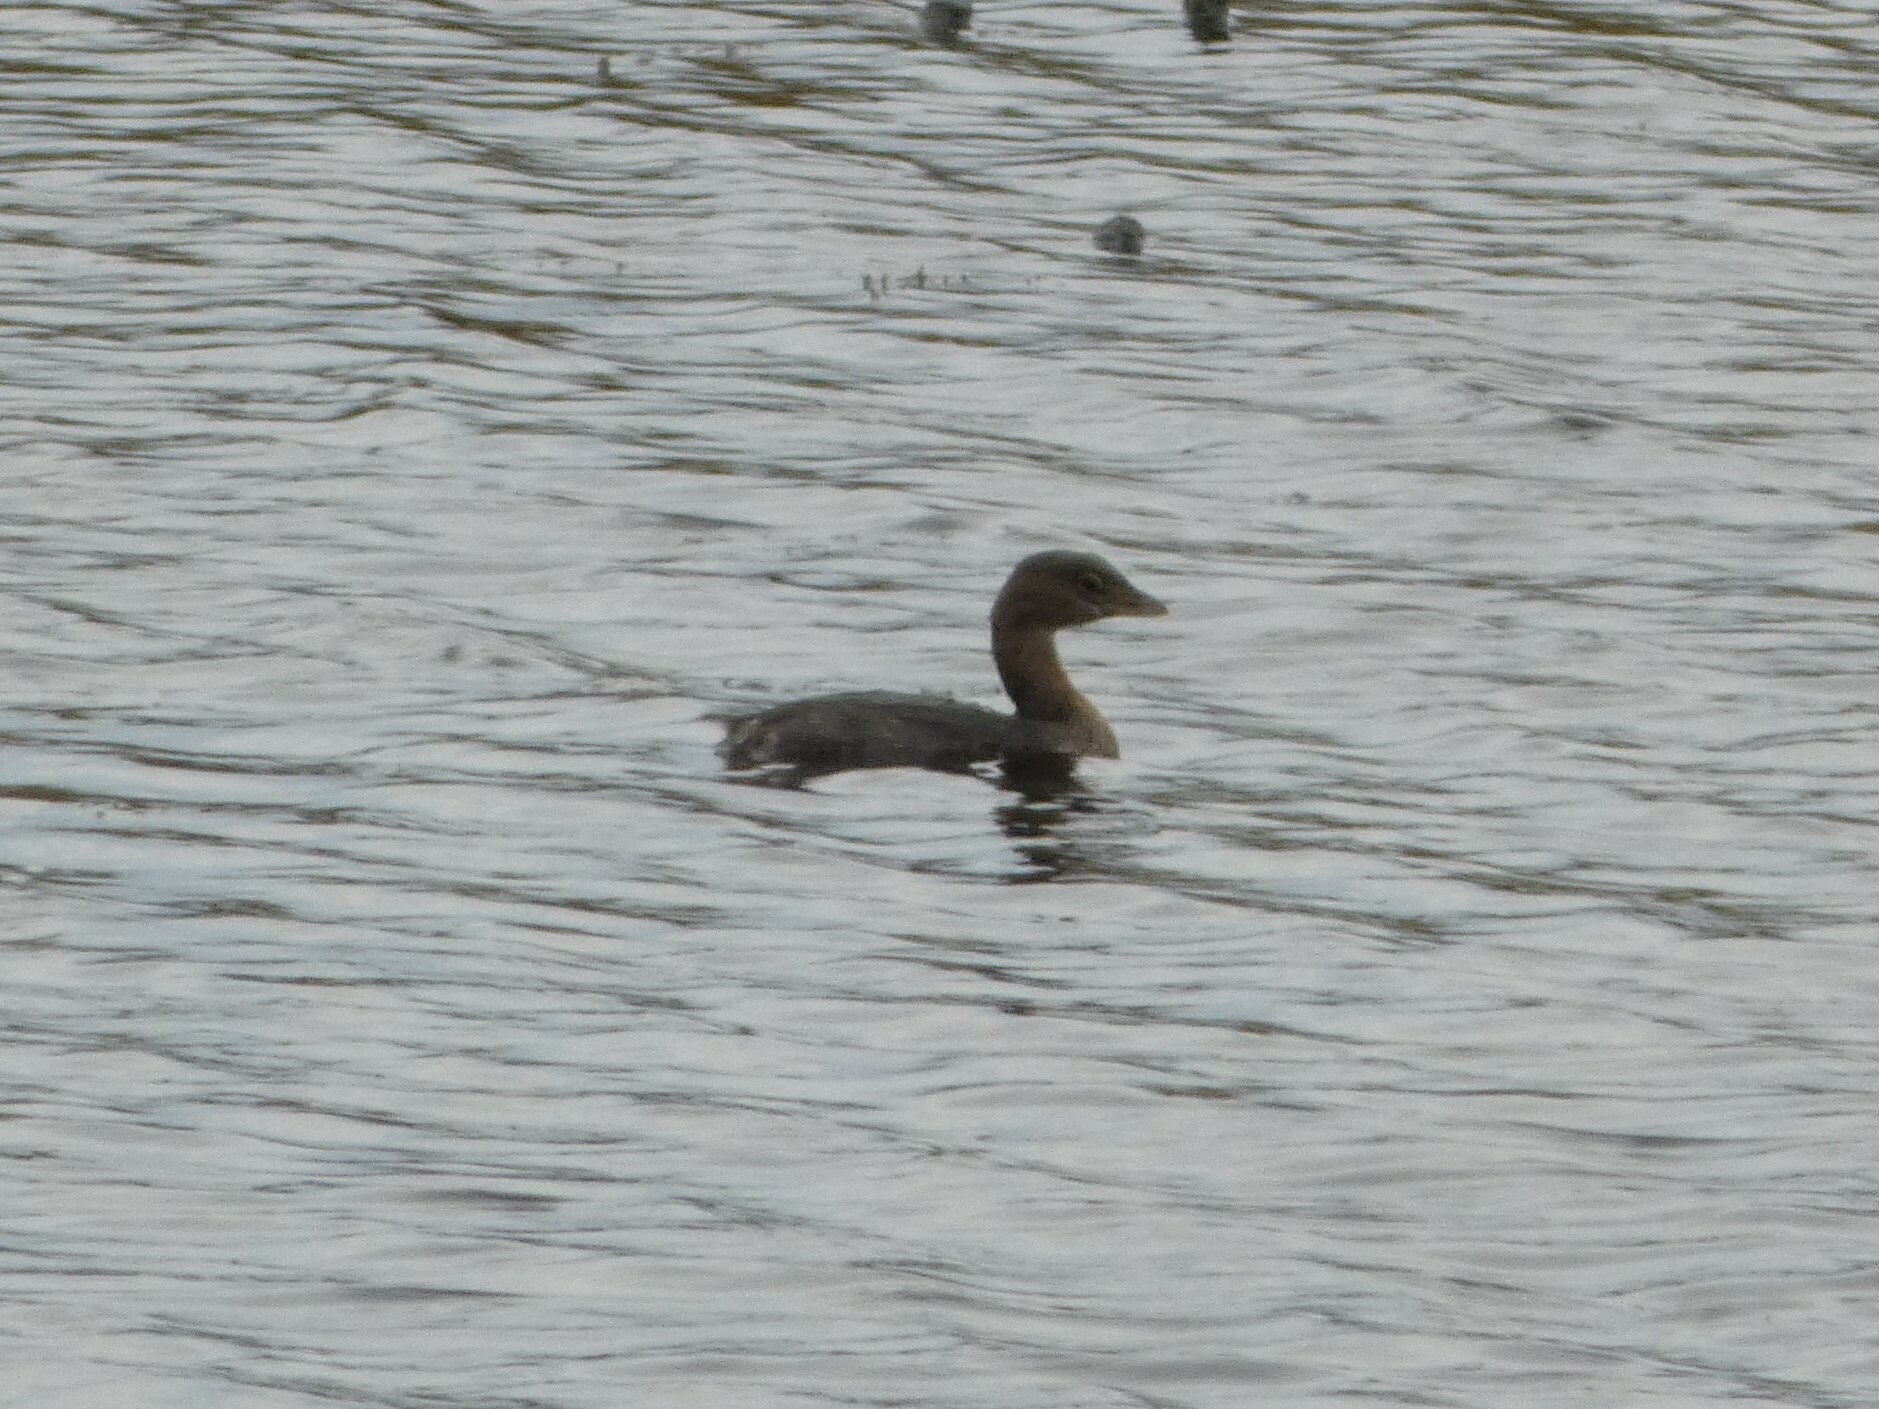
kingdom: Animalia
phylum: Chordata
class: Aves
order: Podicipediformes
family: Podicipedidae
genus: Podilymbus
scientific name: Podilymbus podiceps
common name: Pied-billed grebe
